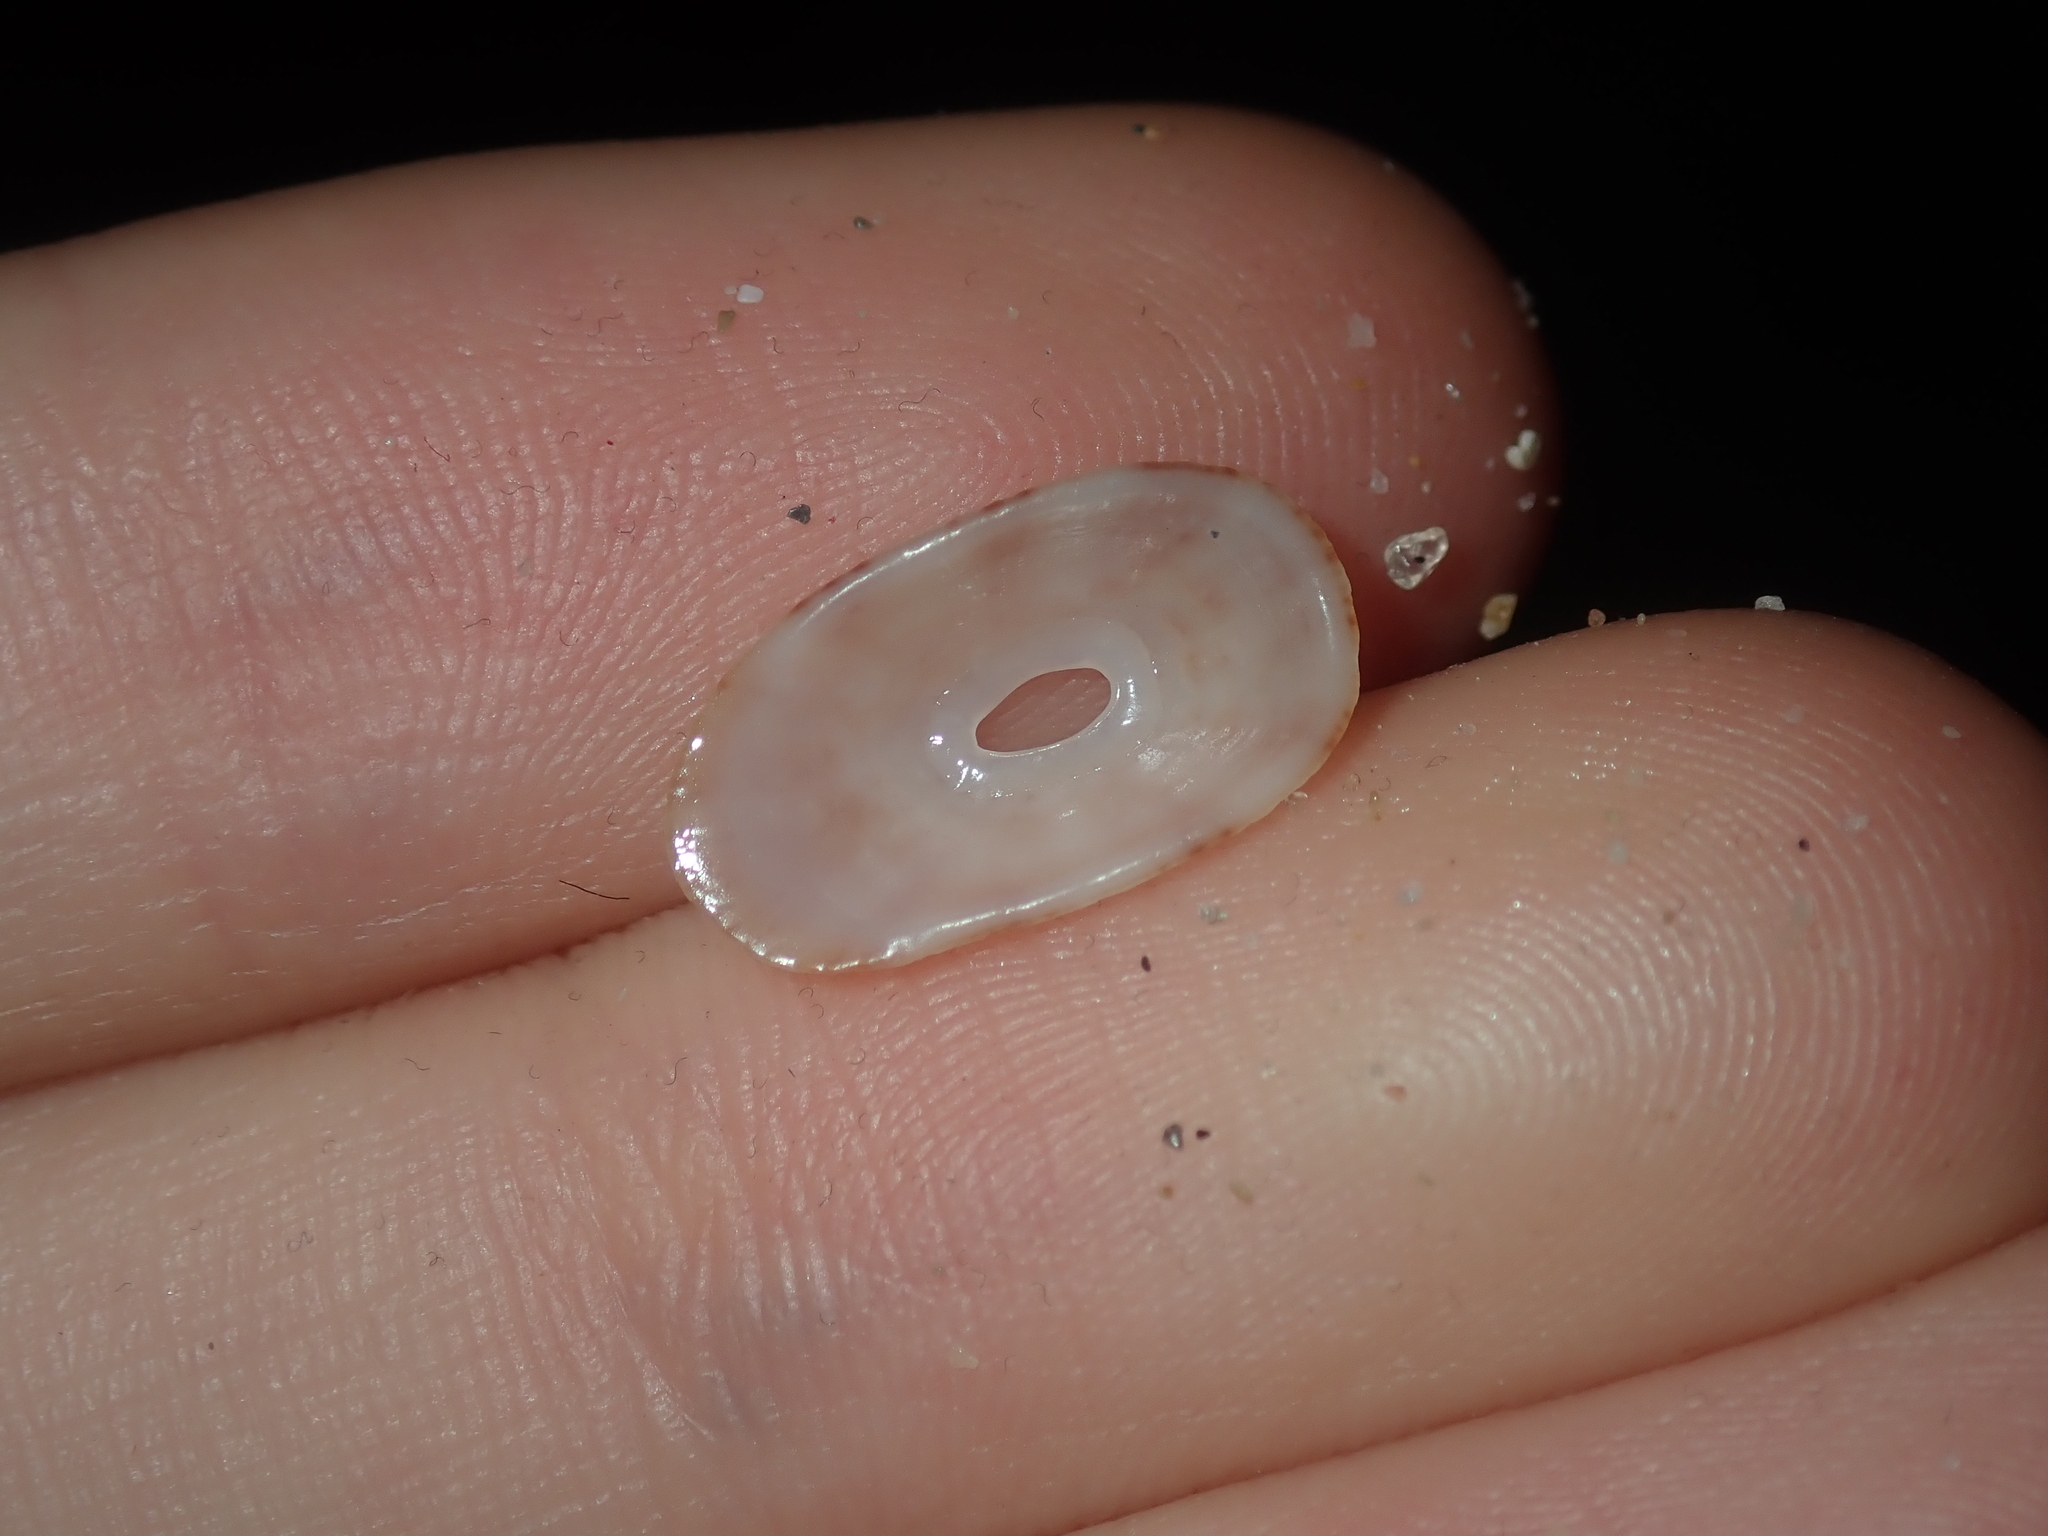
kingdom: Animalia
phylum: Mollusca
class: Gastropoda
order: Lepetellida
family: Fissurellidae
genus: Amblychilepas
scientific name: Amblychilepas oblonga
